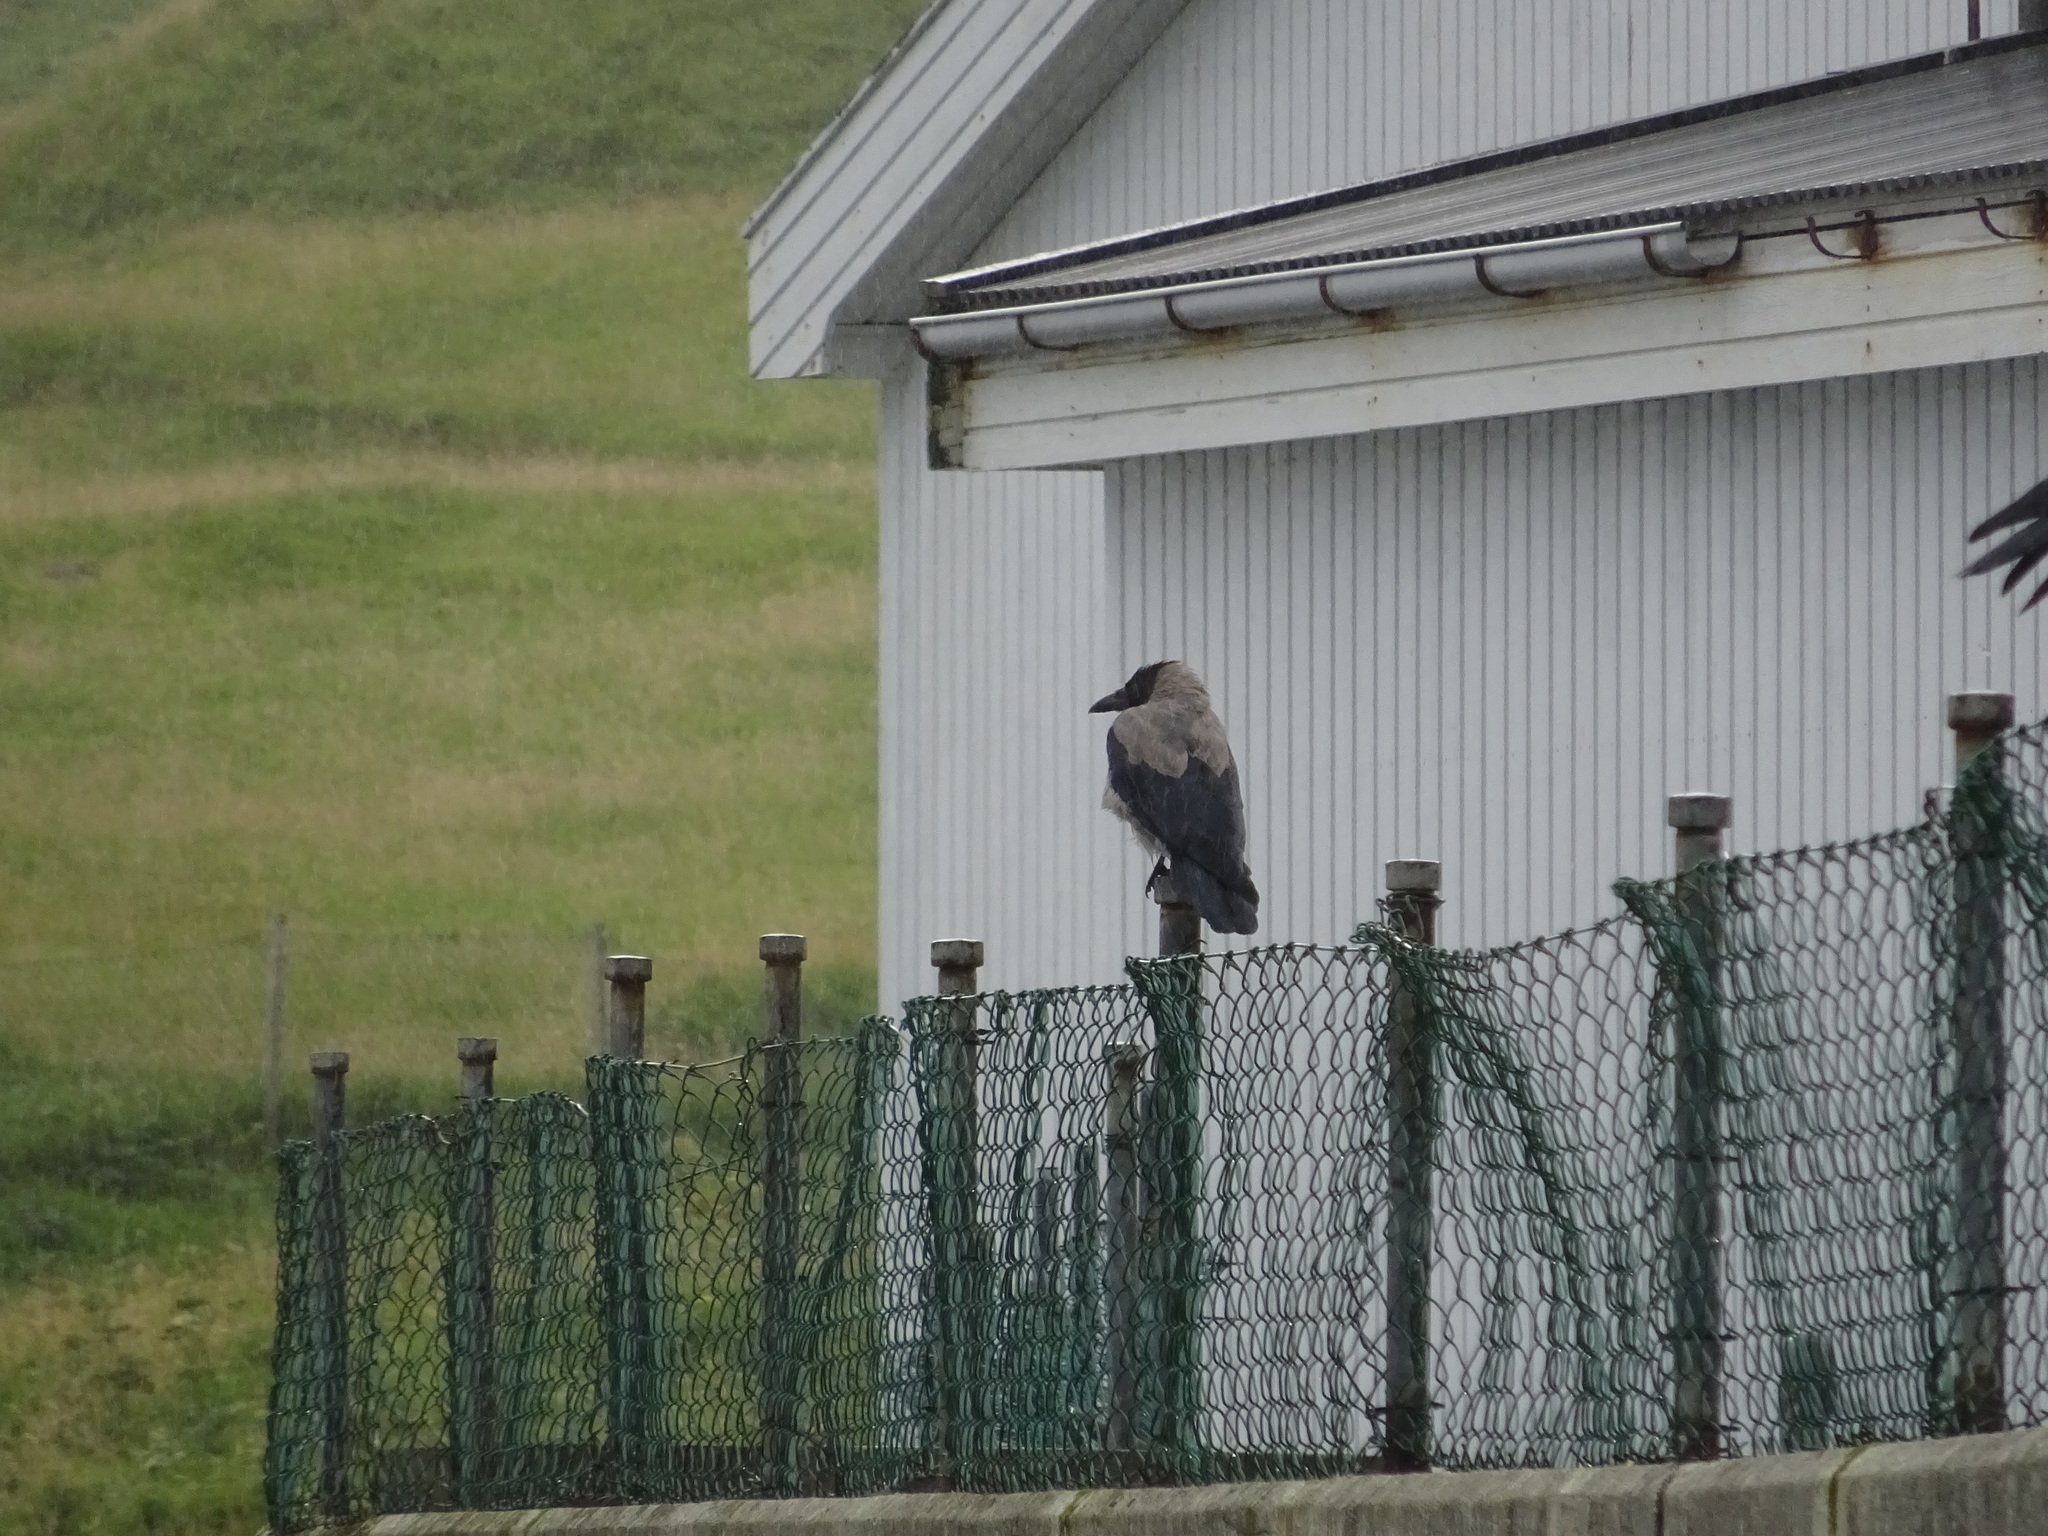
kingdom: Animalia
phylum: Chordata
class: Aves
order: Passeriformes
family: Corvidae
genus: Corvus
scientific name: Corvus cornix
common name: Hooded crow
